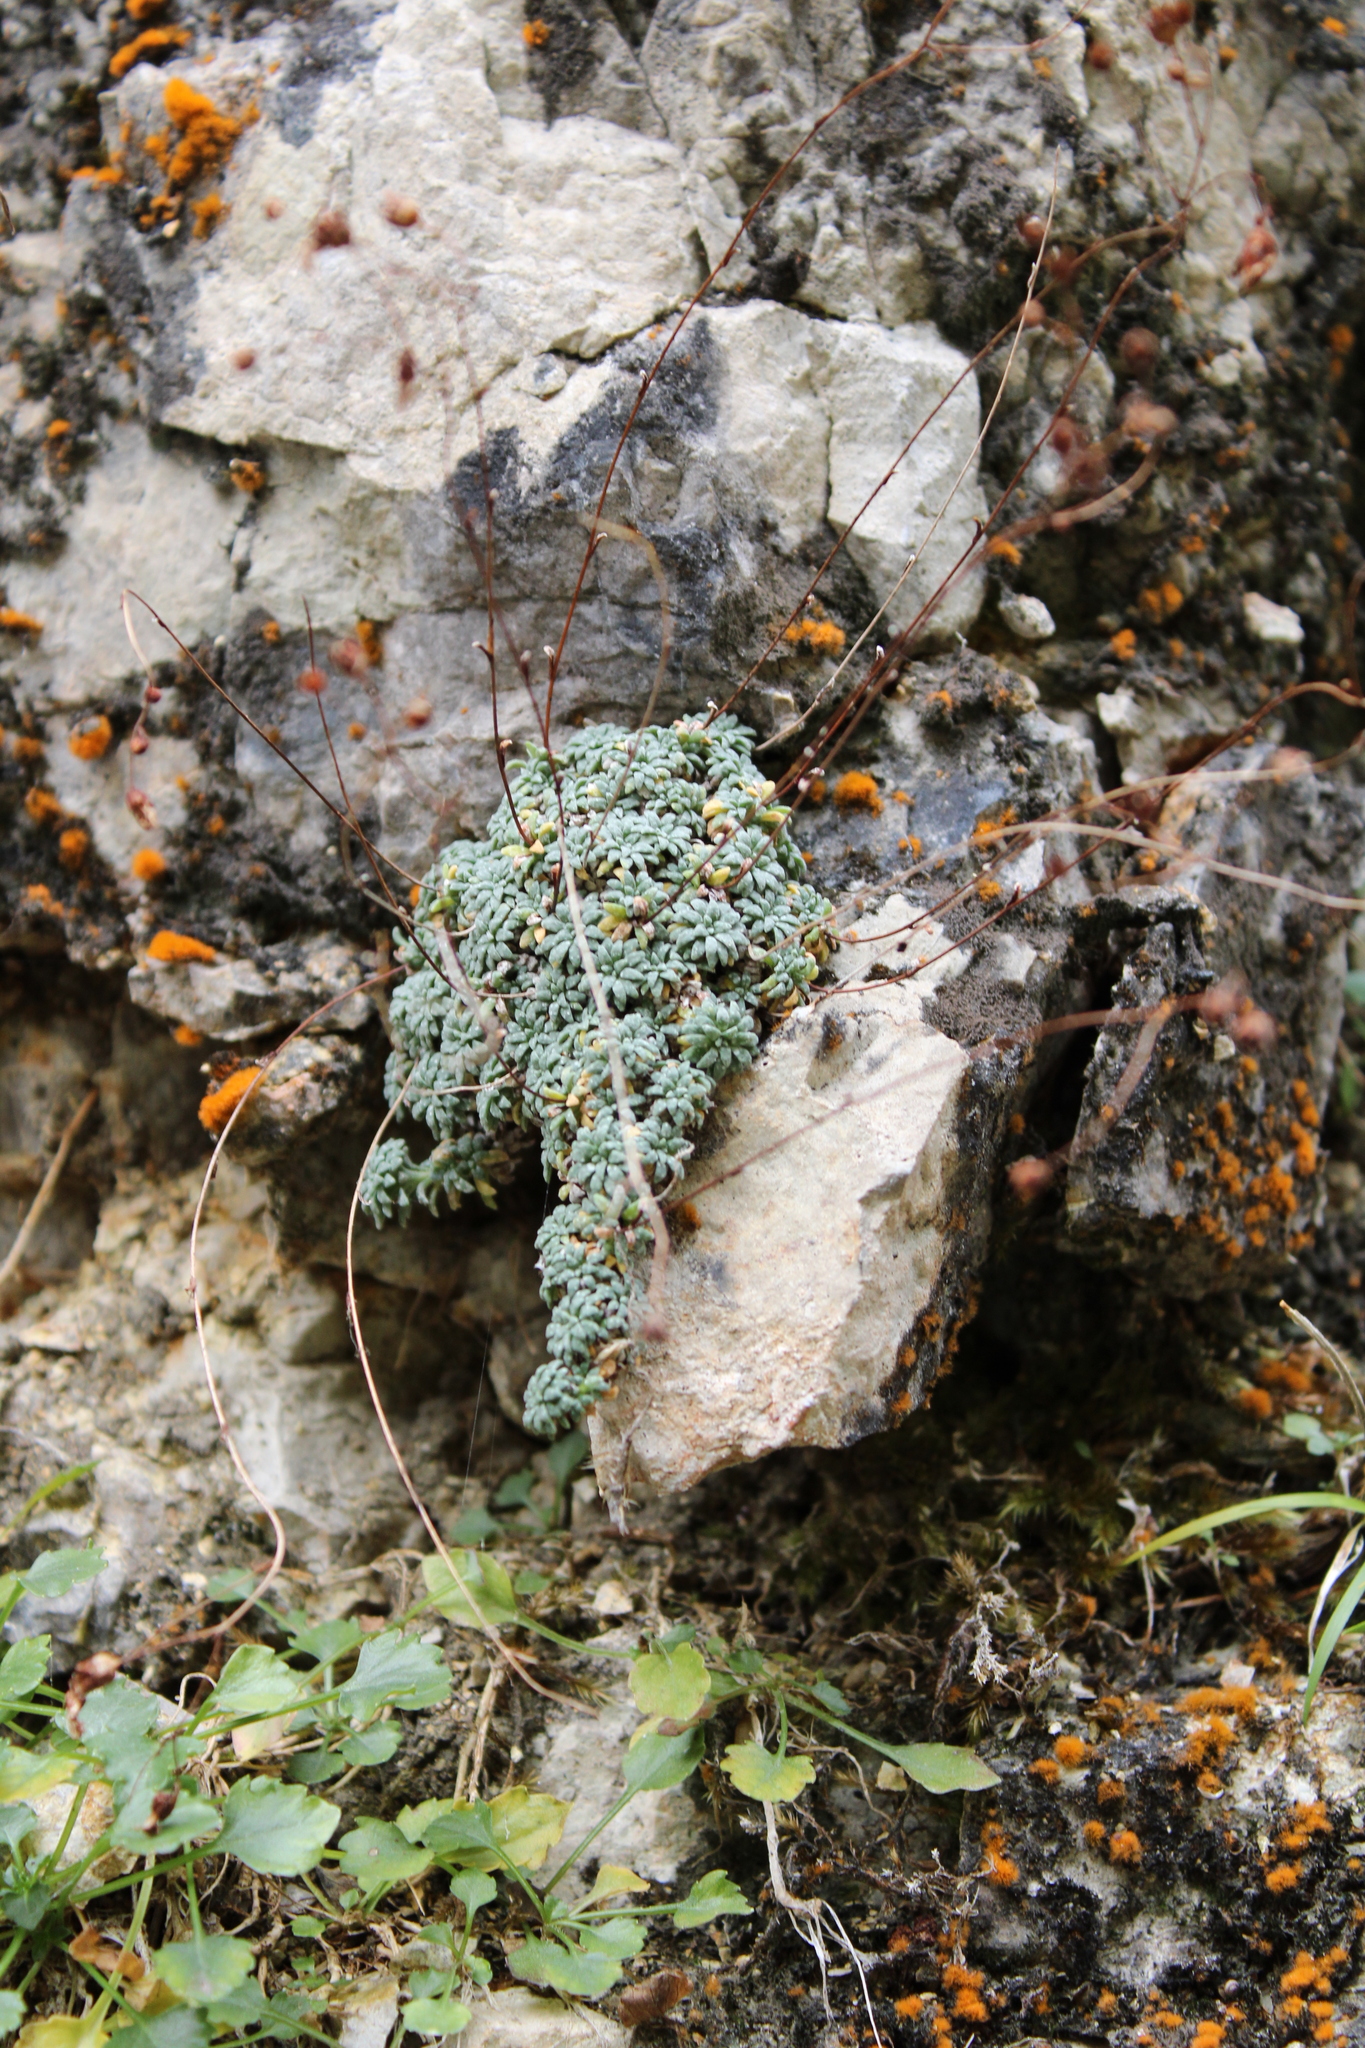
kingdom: Plantae
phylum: Tracheophyta
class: Magnoliopsida
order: Saxifragales
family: Saxifragaceae
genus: Saxifraga
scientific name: Saxifraga caesia
